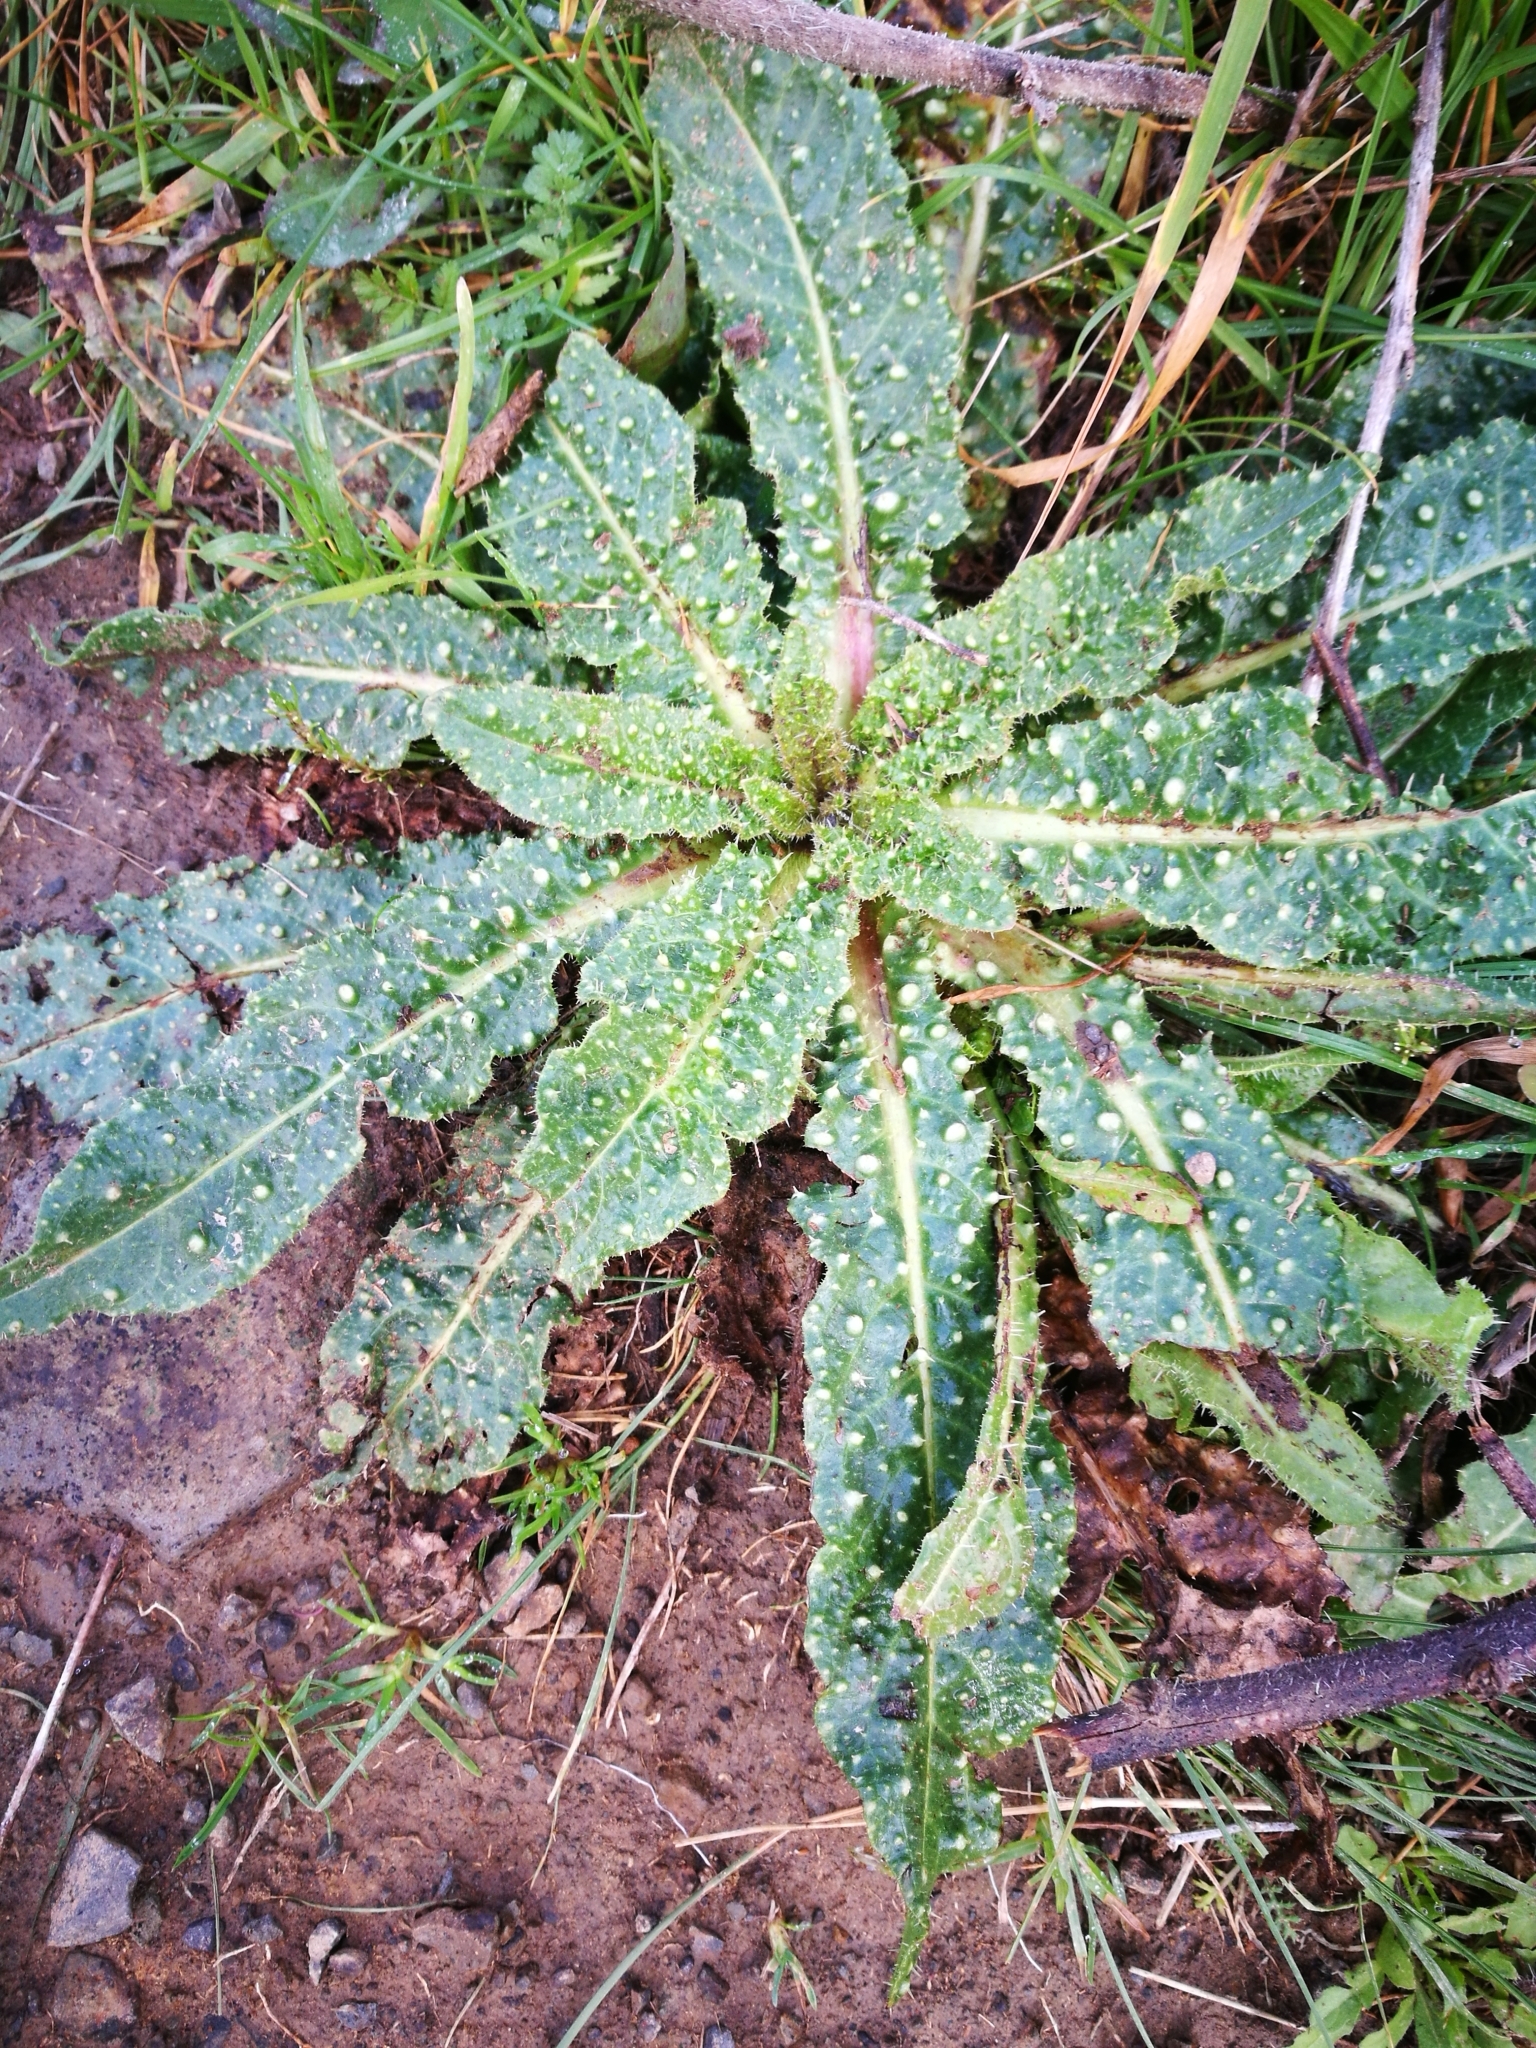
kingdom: Plantae
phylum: Tracheophyta
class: Magnoliopsida
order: Asterales
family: Asteraceae
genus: Helminthotheca
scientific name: Helminthotheca echioides
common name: Ox-tongue
